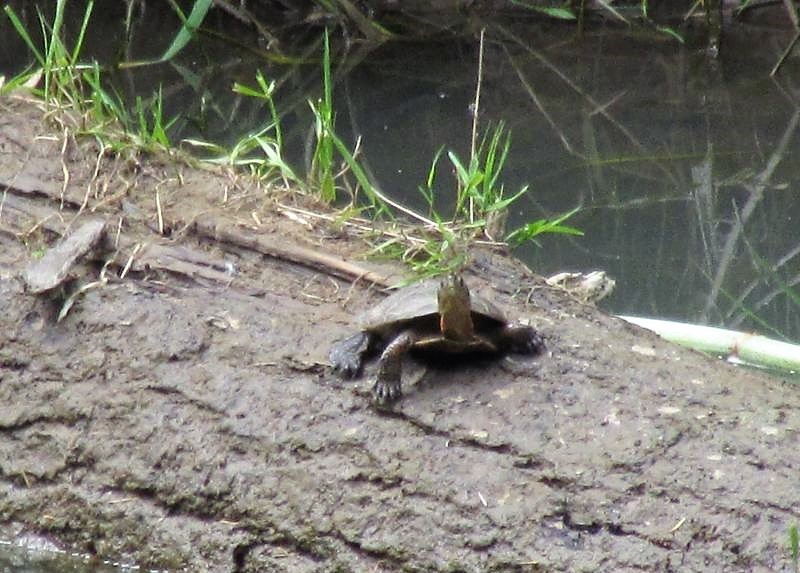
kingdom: Animalia
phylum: Chordata
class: Testudines
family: Emydidae
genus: Actinemys
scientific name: Actinemys marmorata
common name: Western pond turtle
